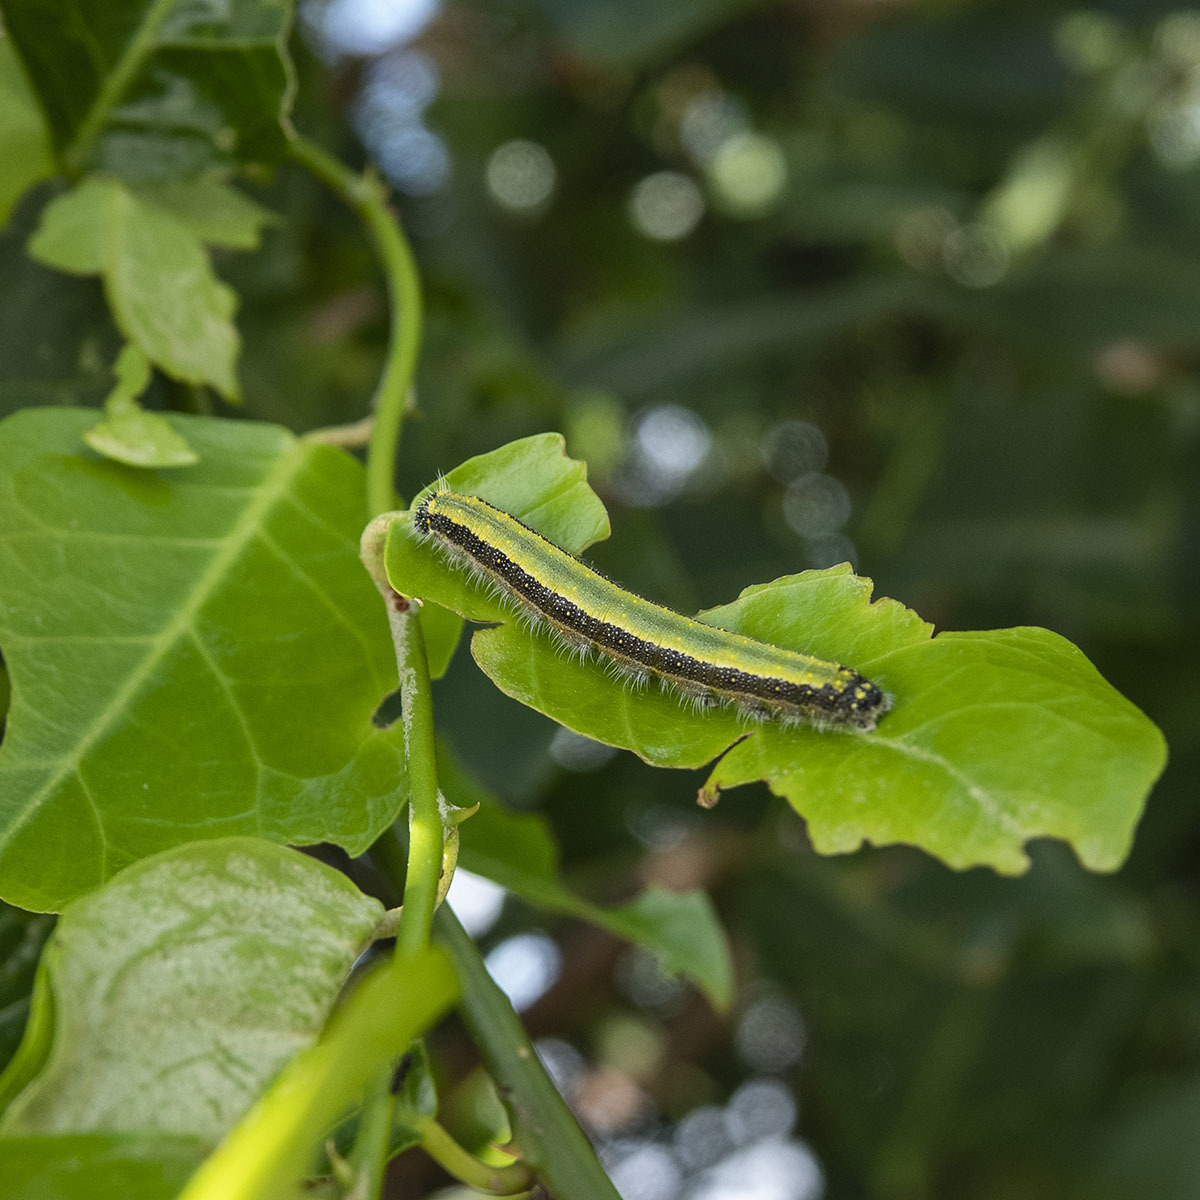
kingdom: Animalia
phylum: Arthropoda
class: Insecta
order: Lepidoptera
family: Pieridae
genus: Belenois
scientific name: Belenois aurota
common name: Brown-veined white
